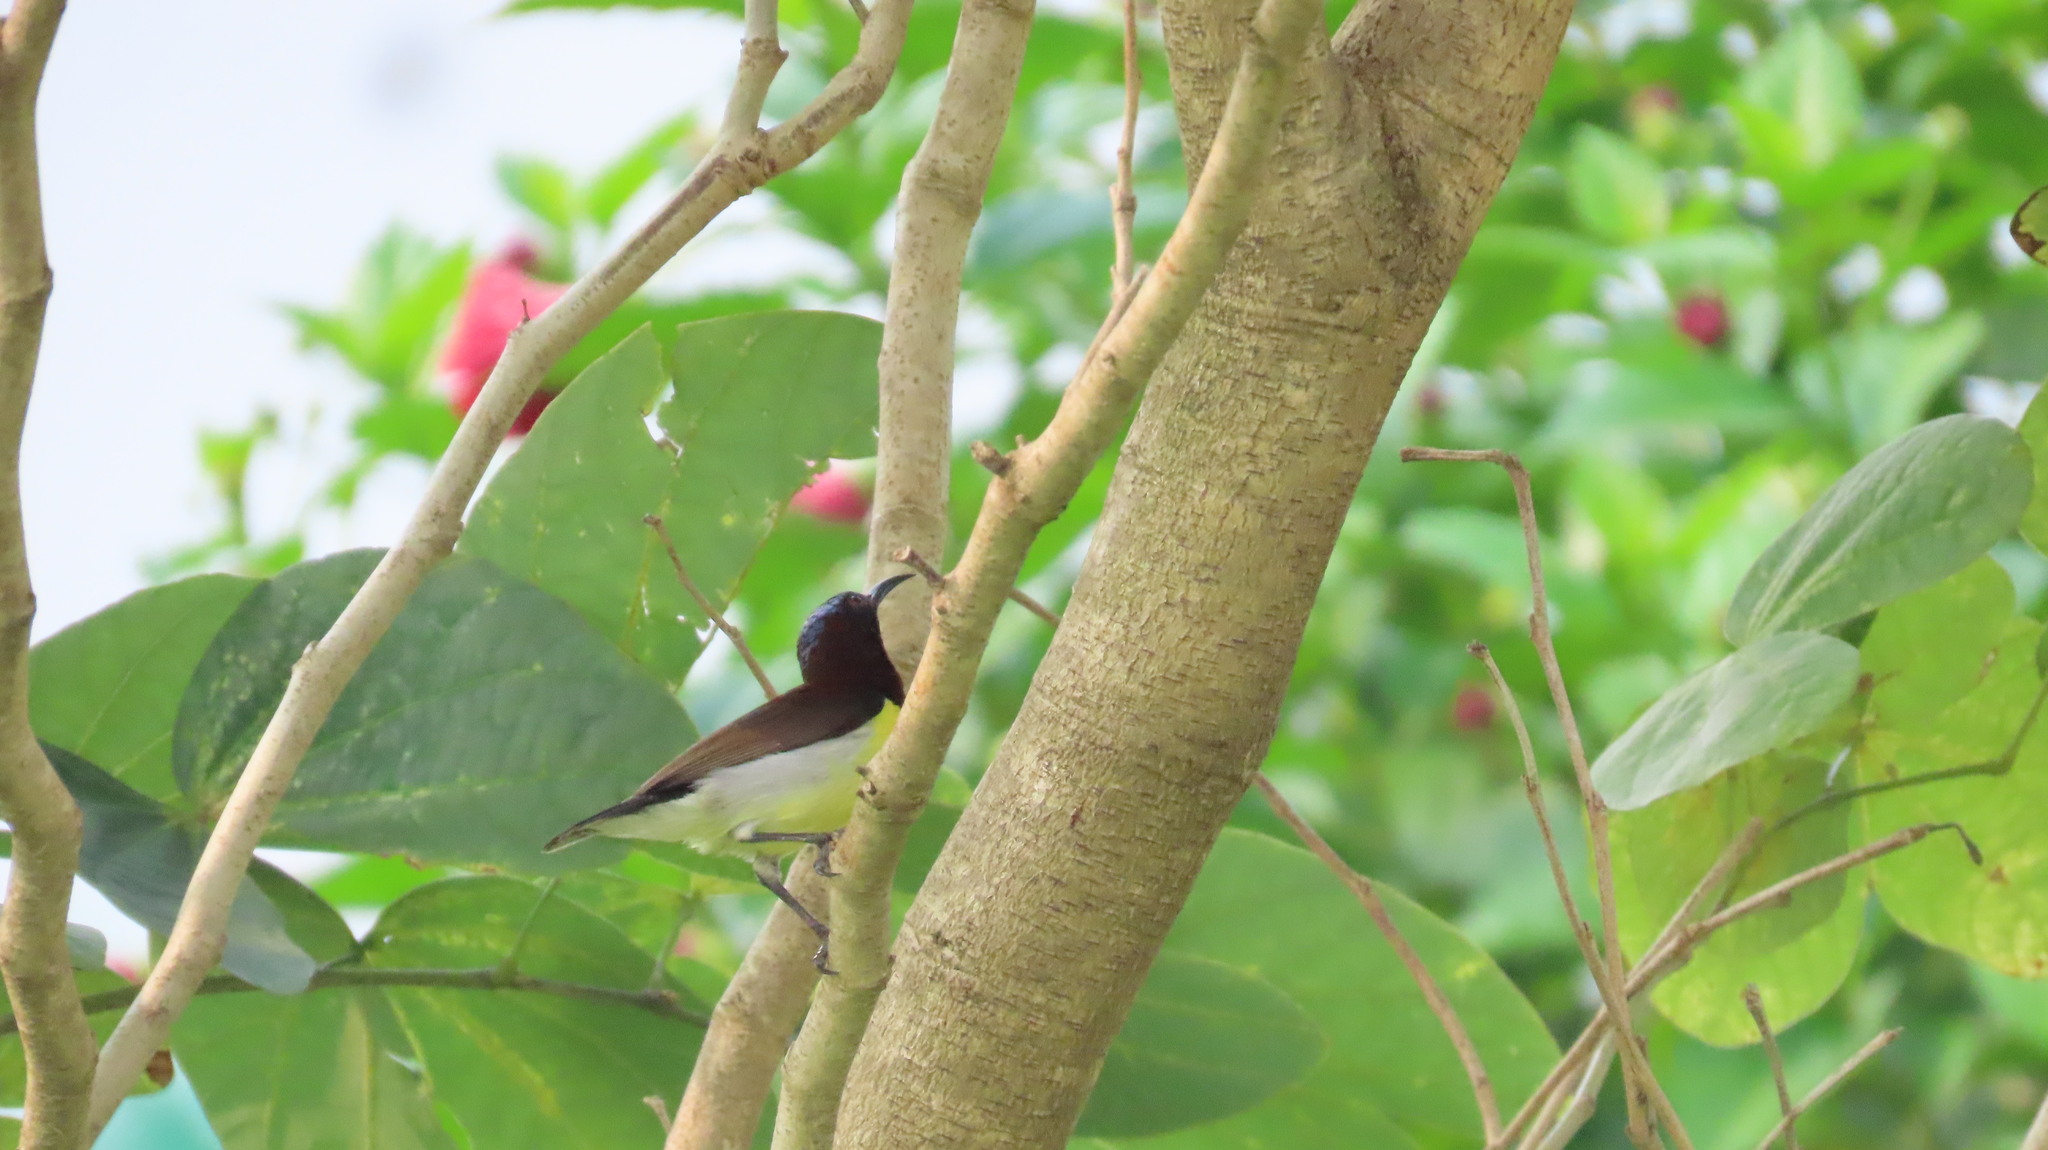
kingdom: Animalia
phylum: Chordata
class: Aves
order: Passeriformes
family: Nectariniidae
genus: Leptocoma
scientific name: Leptocoma zeylonica
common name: Purple-rumped sunbird
